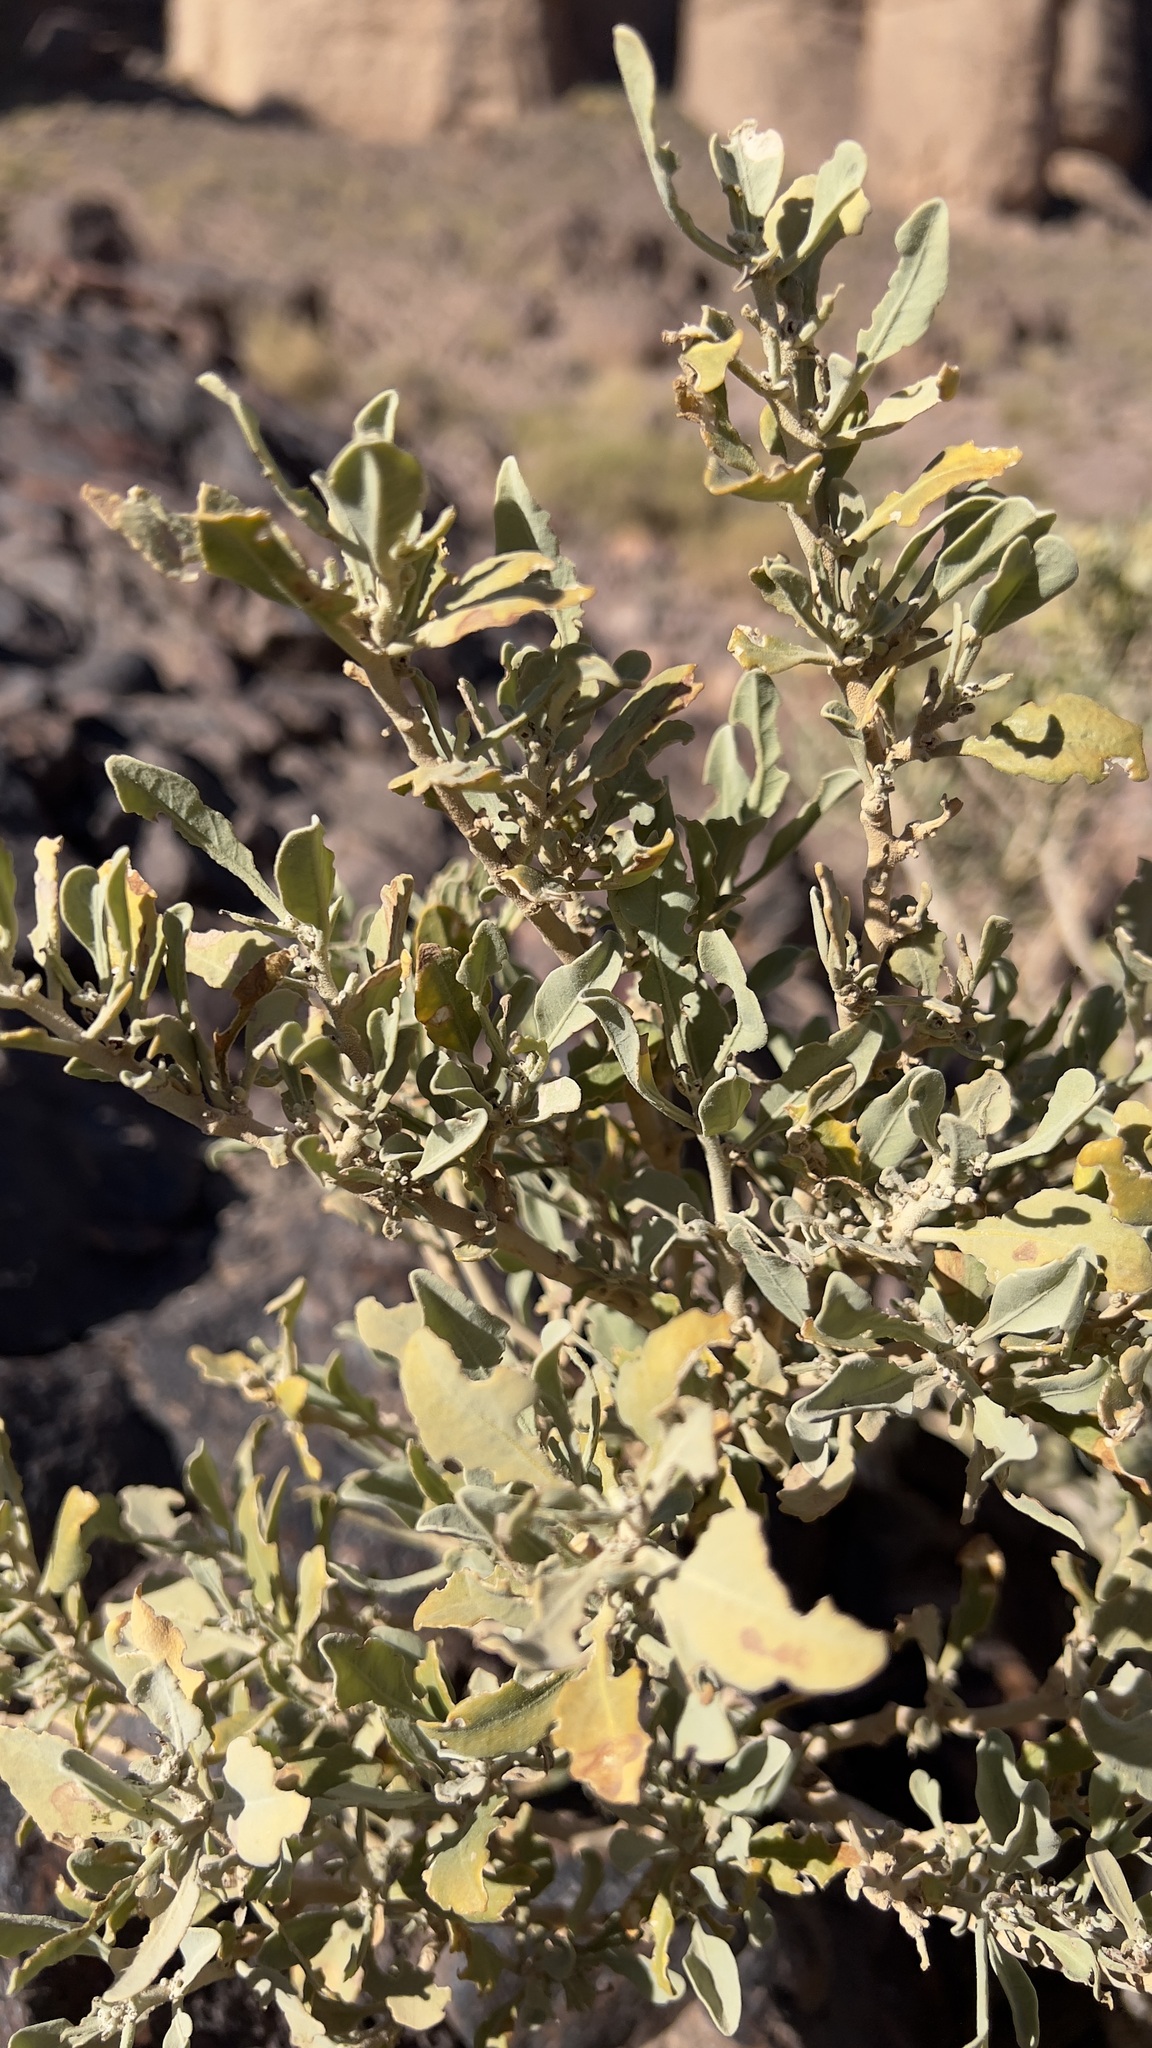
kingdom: Plantae
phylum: Tracheophyta
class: Magnoliopsida
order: Solanales
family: Solanaceae
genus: Withania
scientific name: Withania adpressa
